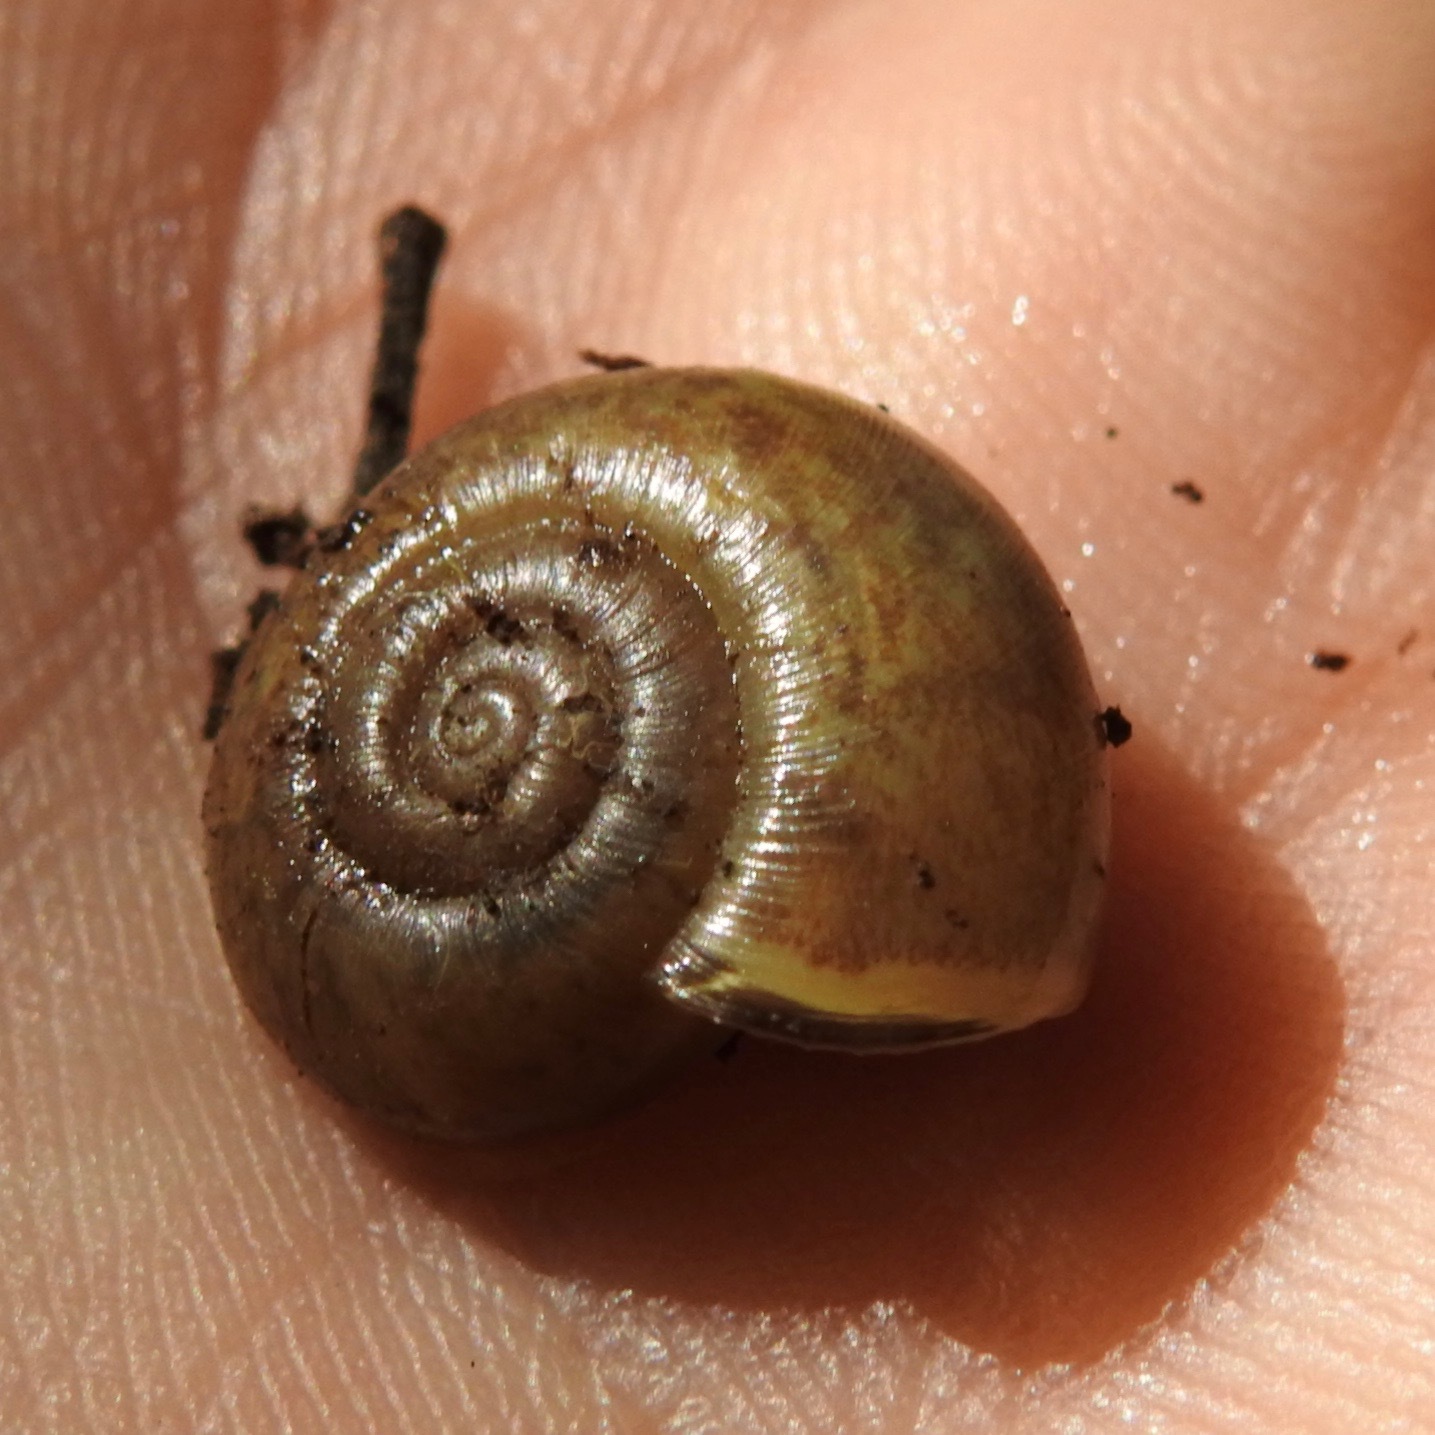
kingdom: Animalia
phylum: Mollusca
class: Gastropoda
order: Stylommatophora
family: Haplotrematidae
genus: Haplotrema
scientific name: Haplotrema minimum
